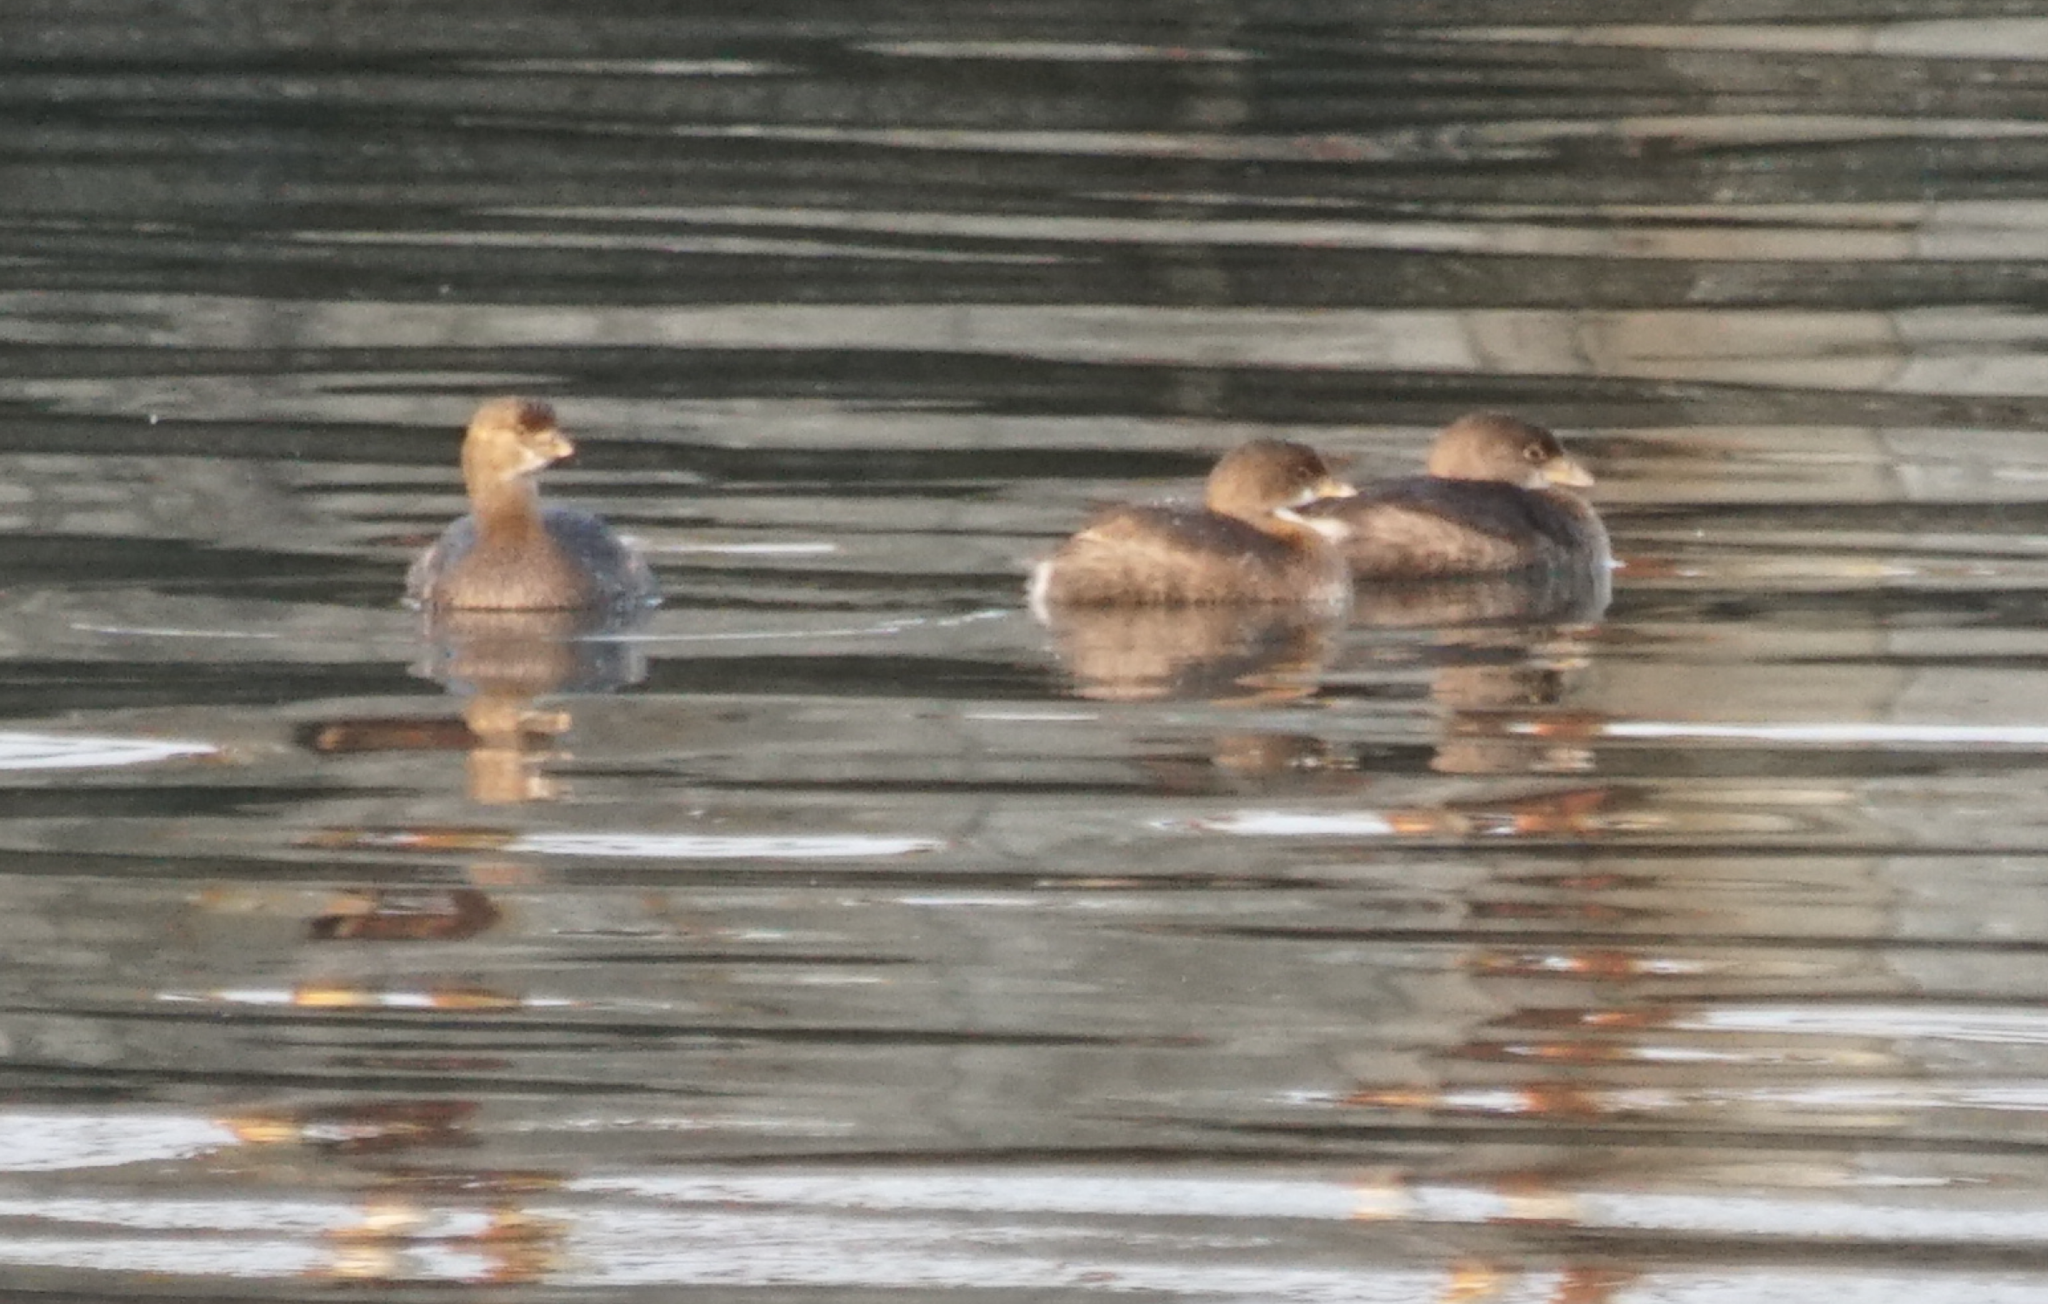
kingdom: Animalia
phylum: Chordata
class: Aves
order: Podicipediformes
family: Podicipedidae
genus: Podilymbus
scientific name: Podilymbus podiceps
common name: Pied-billed grebe
